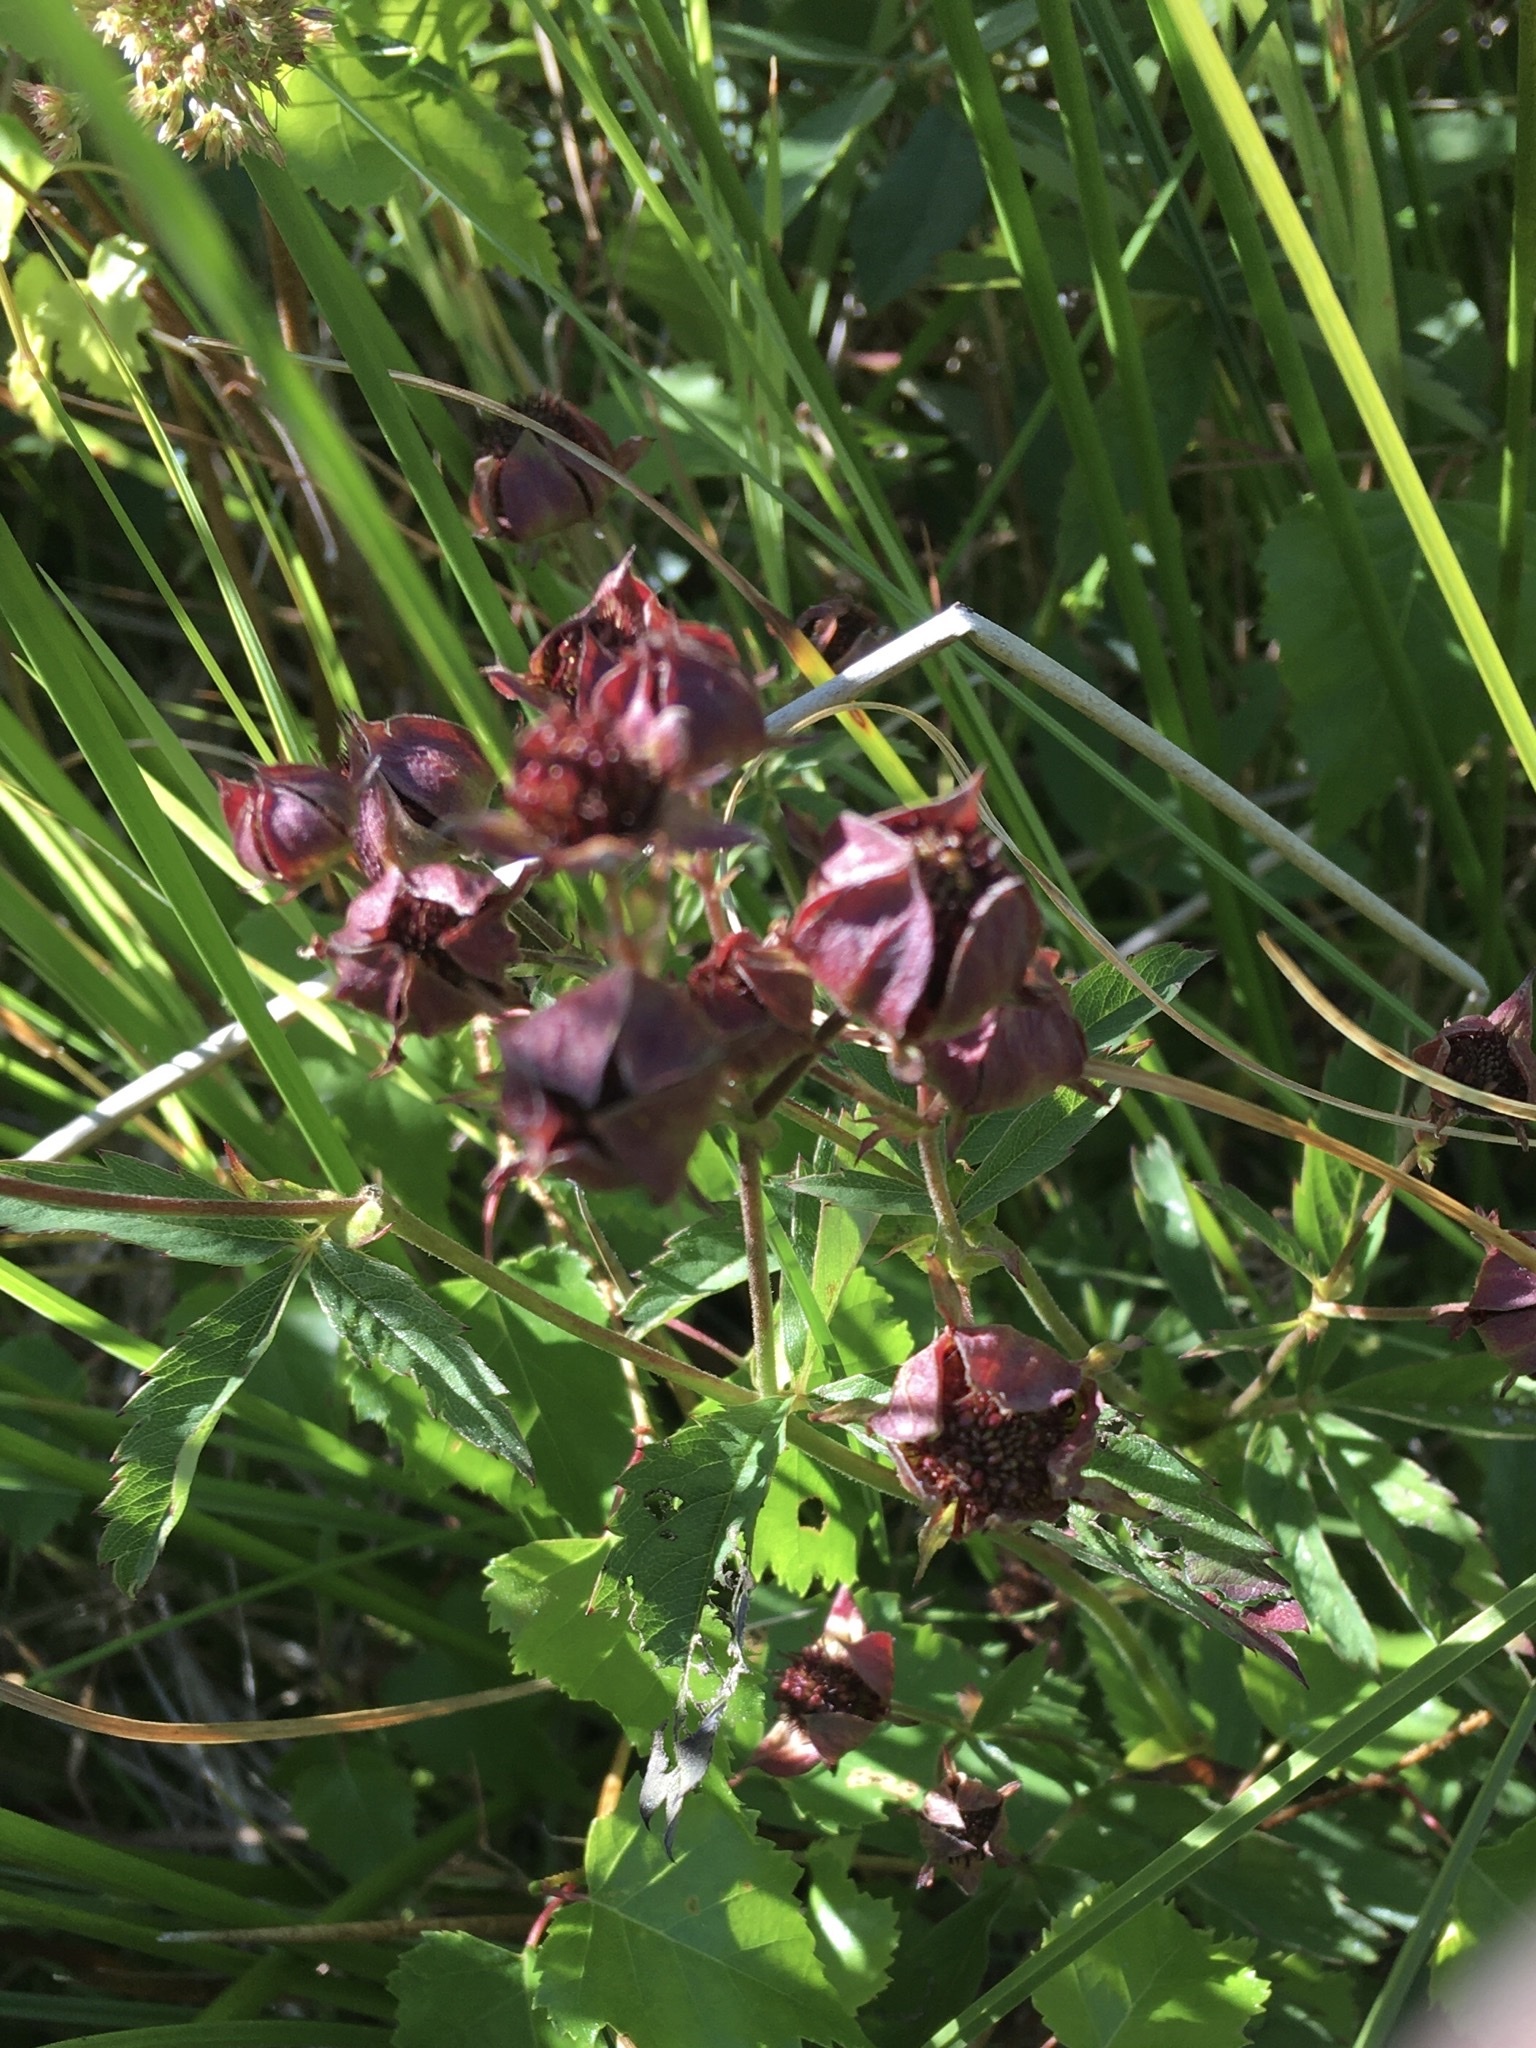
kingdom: Plantae
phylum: Tracheophyta
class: Magnoliopsida
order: Rosales
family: Rosaceae
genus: Comarum
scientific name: Comarum palustre
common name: Marsh cinquefoil
